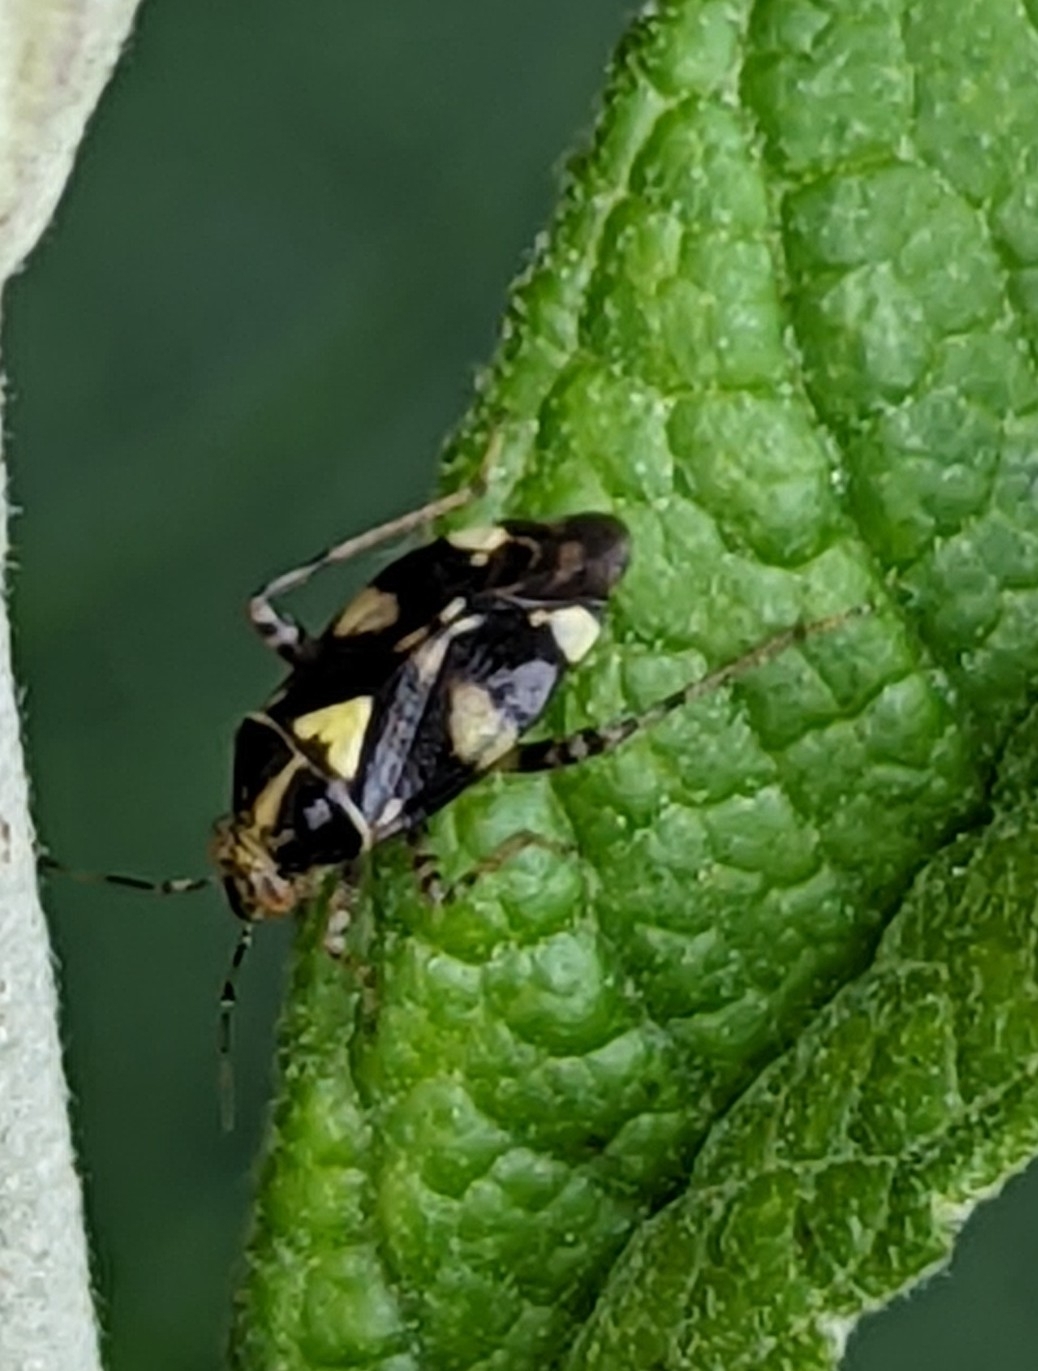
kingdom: Animalia
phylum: Arthropoda
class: Insecta
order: Hemiptera
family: Miridae
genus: Liocoris
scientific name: Liocoris tripustulatus
